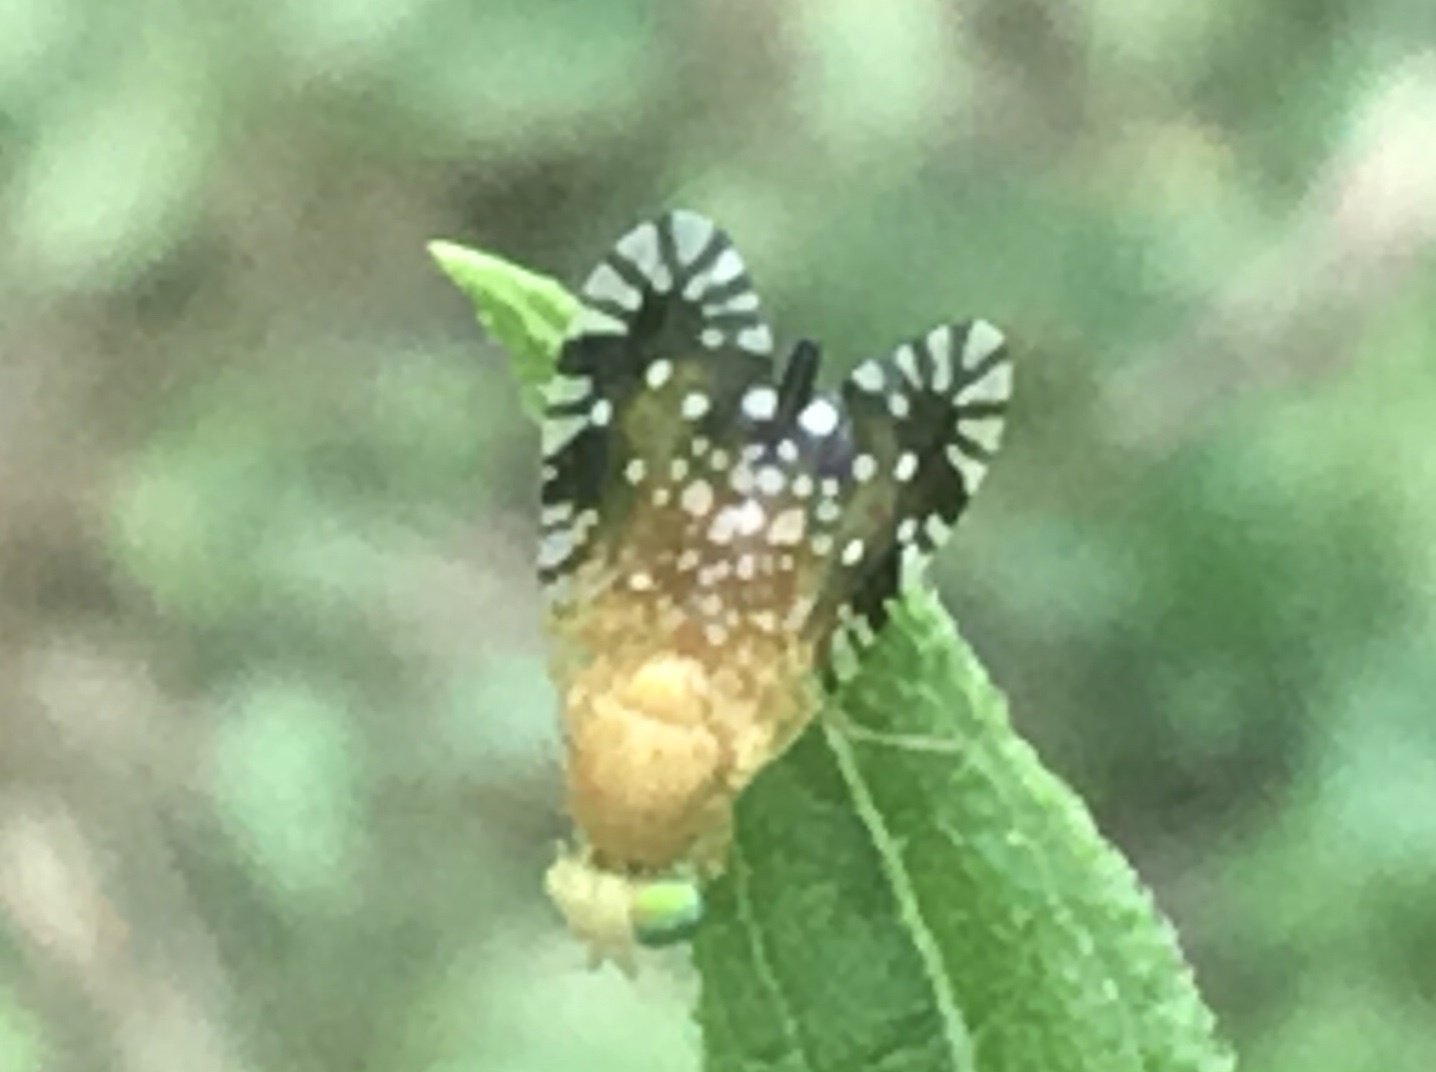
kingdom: Animalia
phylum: Arthropoda
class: Insecta
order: Diptera
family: Tephritidae
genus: Euaresta
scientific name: Euaresta festiva
